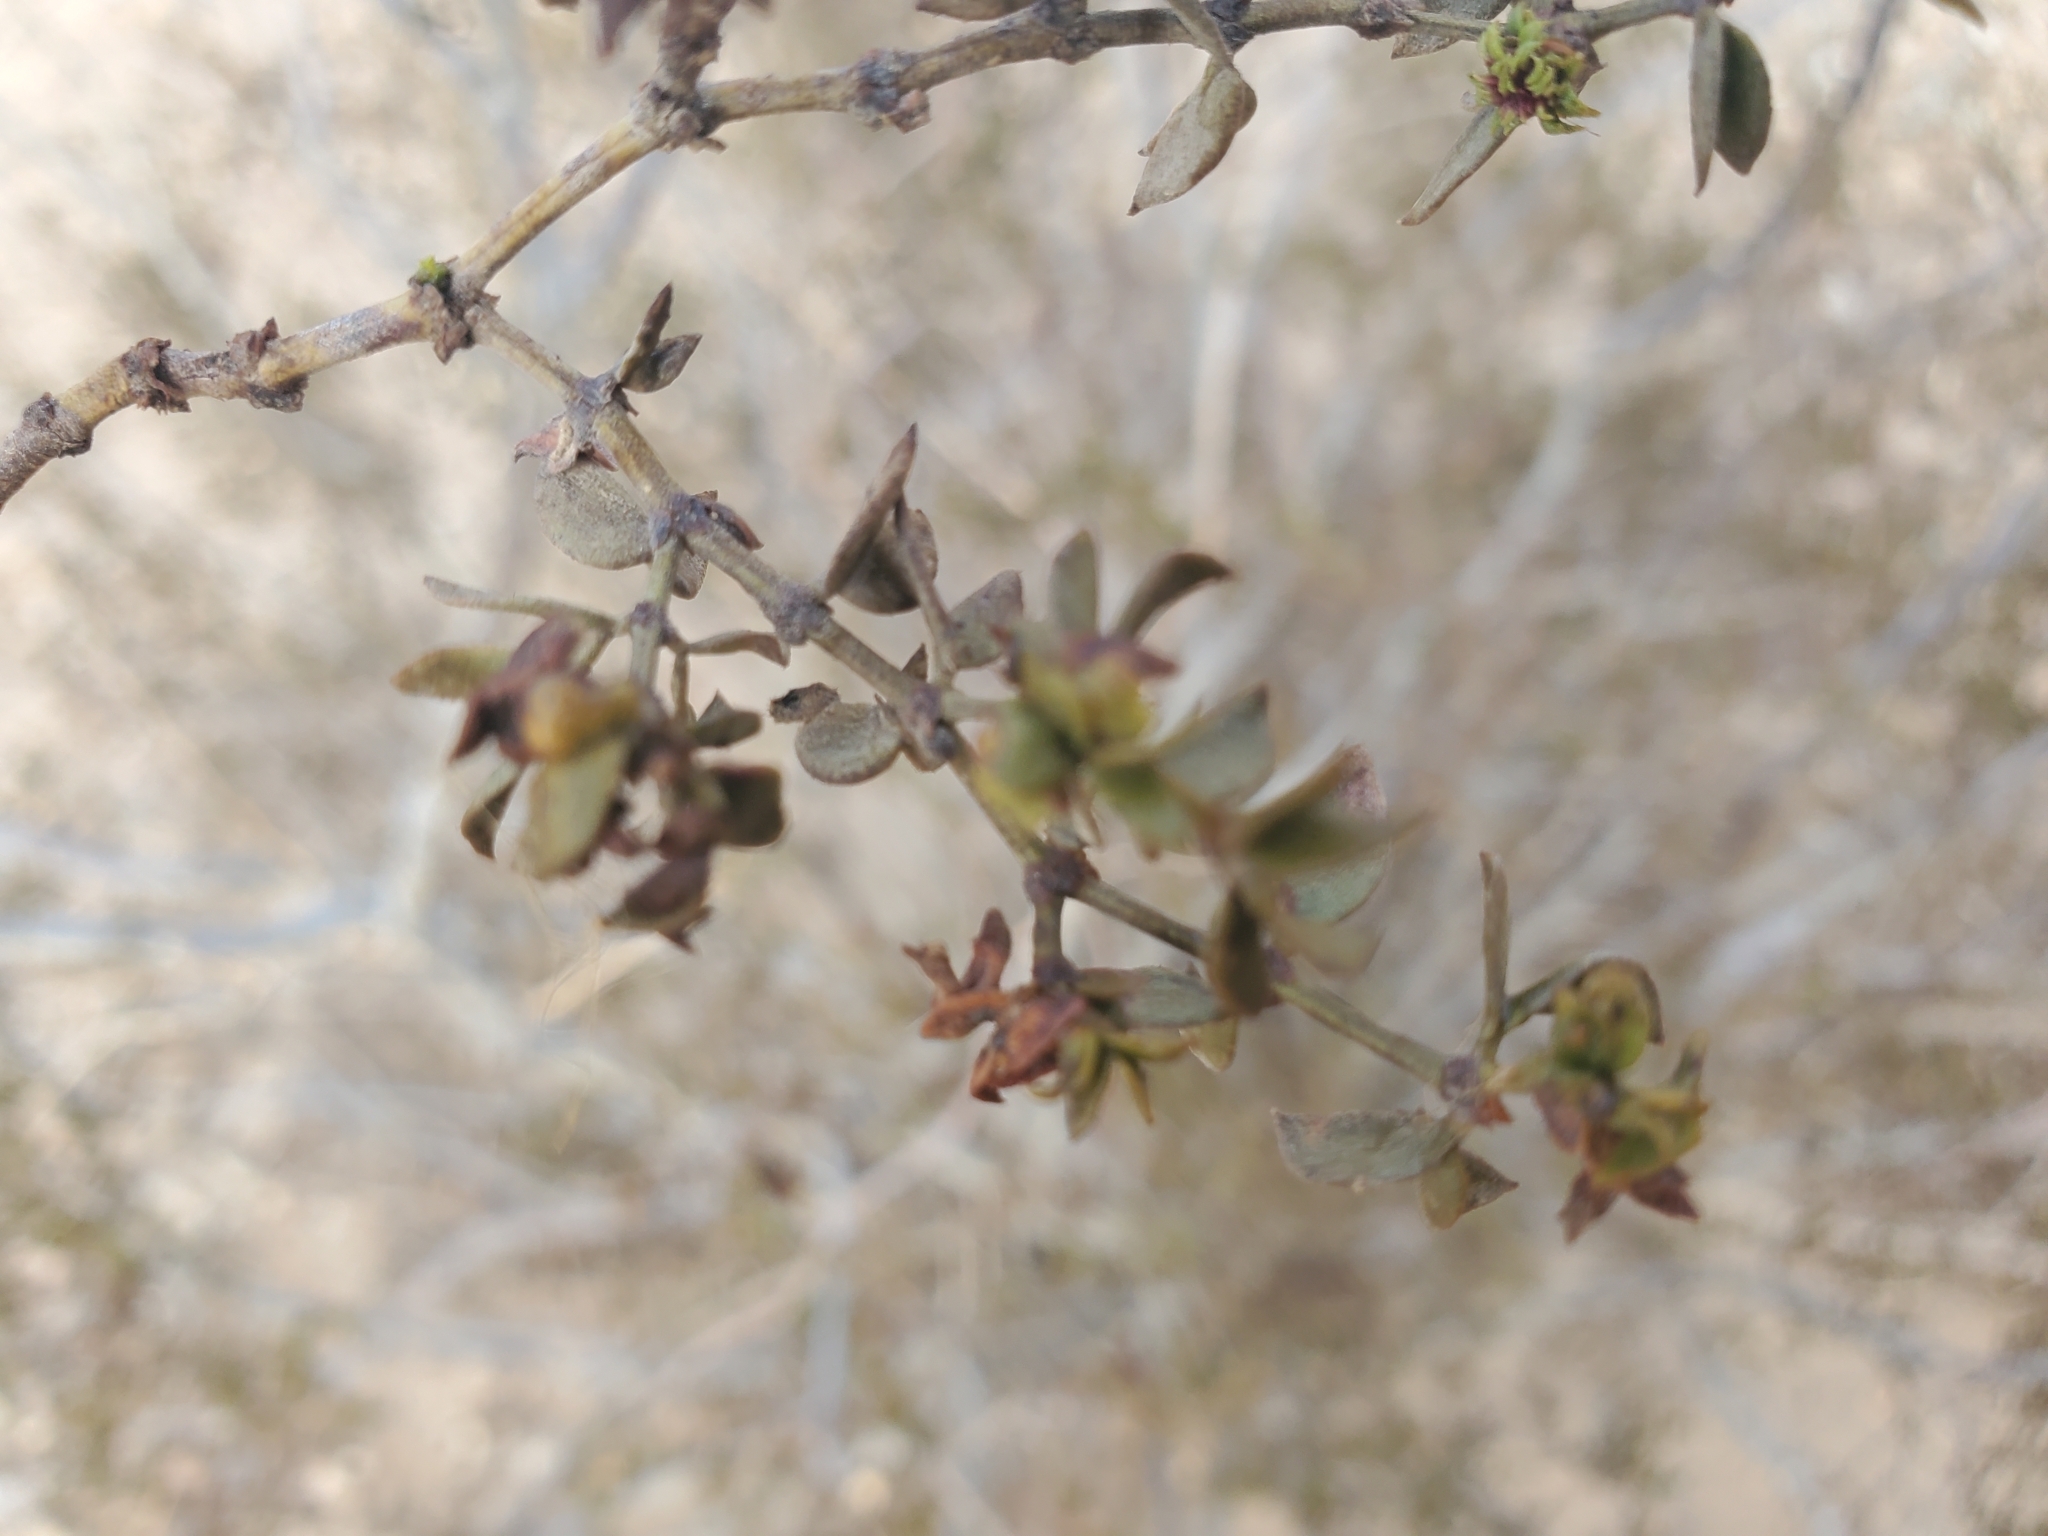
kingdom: Plantae
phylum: Tracheophyta
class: Magnoliopsida
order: Zygophyllales
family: Zygophyllaceae
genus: Larrea
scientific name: Larrea tridentata
